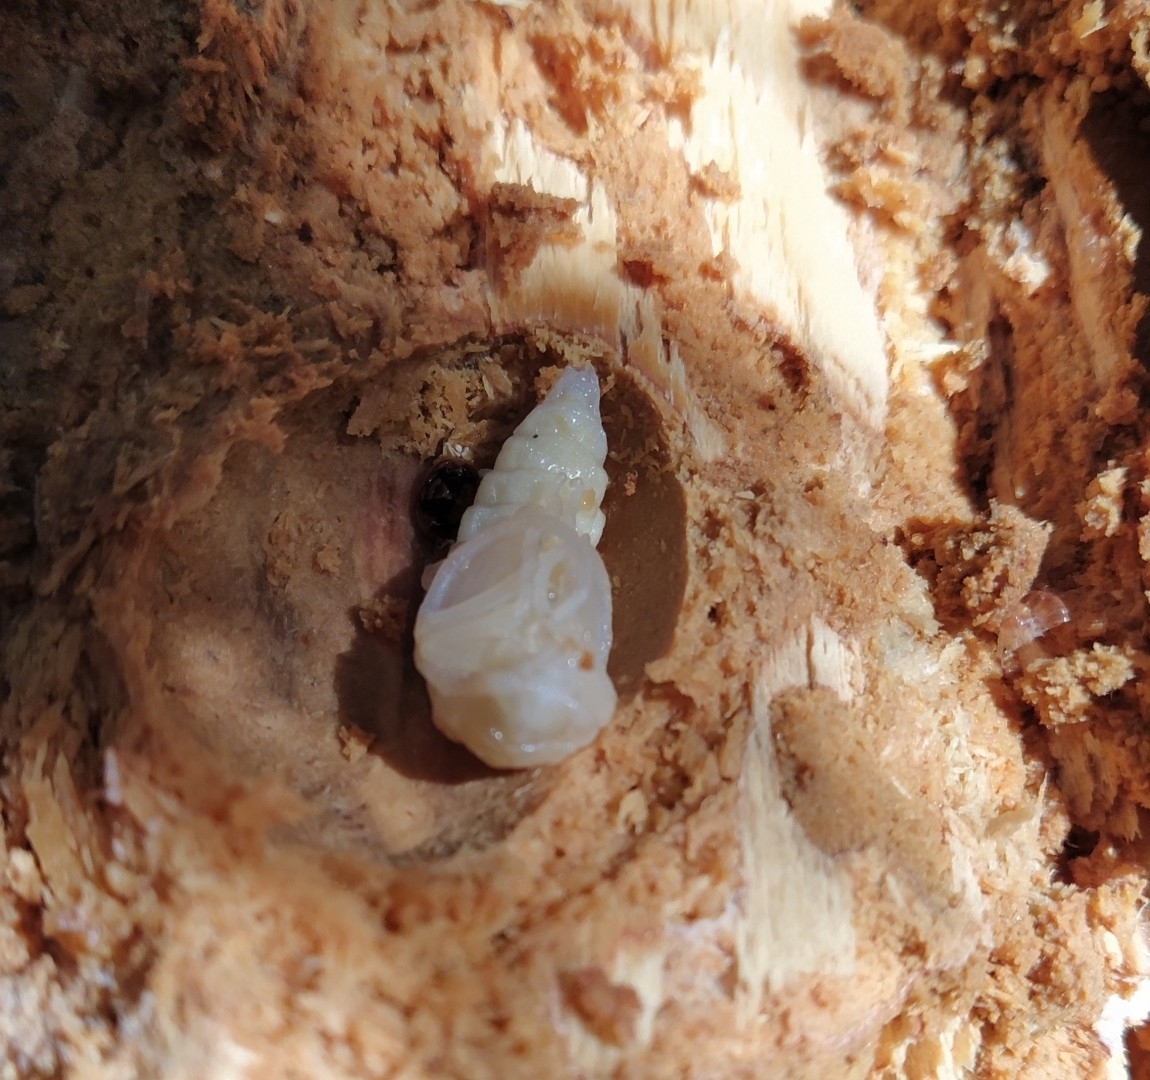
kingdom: Animalia
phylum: Arthropoda
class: Insecta
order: Coleoptera
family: Cerambycidae
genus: Prionoplus
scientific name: Prionoplus reticularis
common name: Huhu beetle
